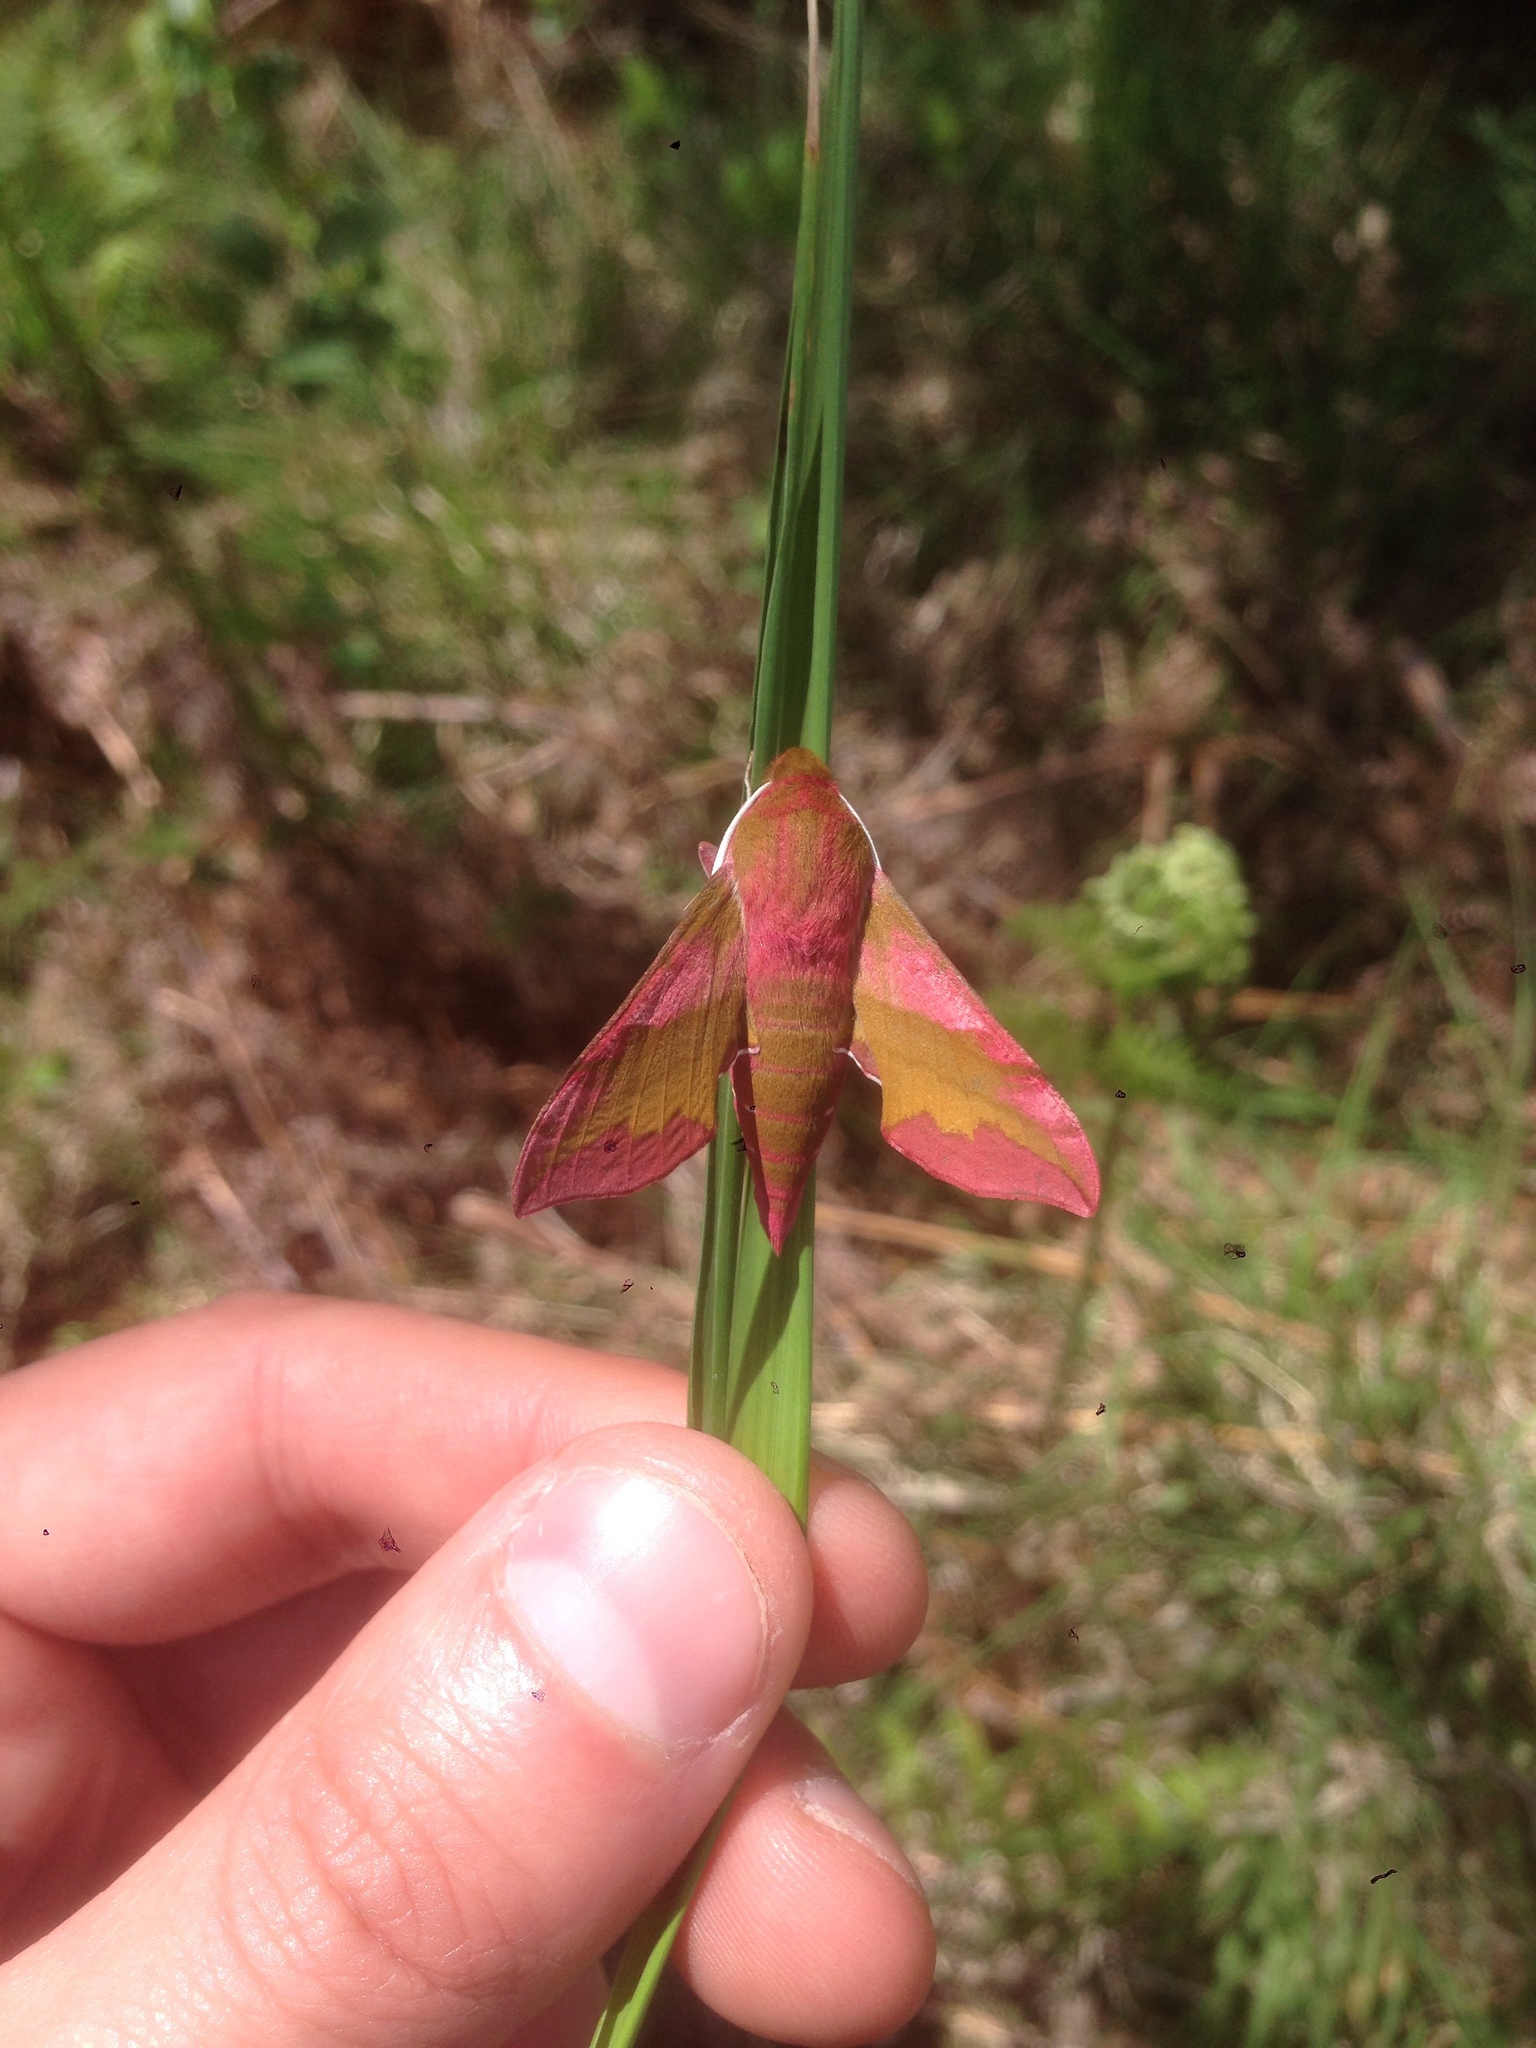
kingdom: Animalia
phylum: Arthropoda
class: Insecta
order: Lepidoptera
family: Sphingidae
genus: Deilephila
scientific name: Deilephila porcellus
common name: Small elephant hawk-moth
